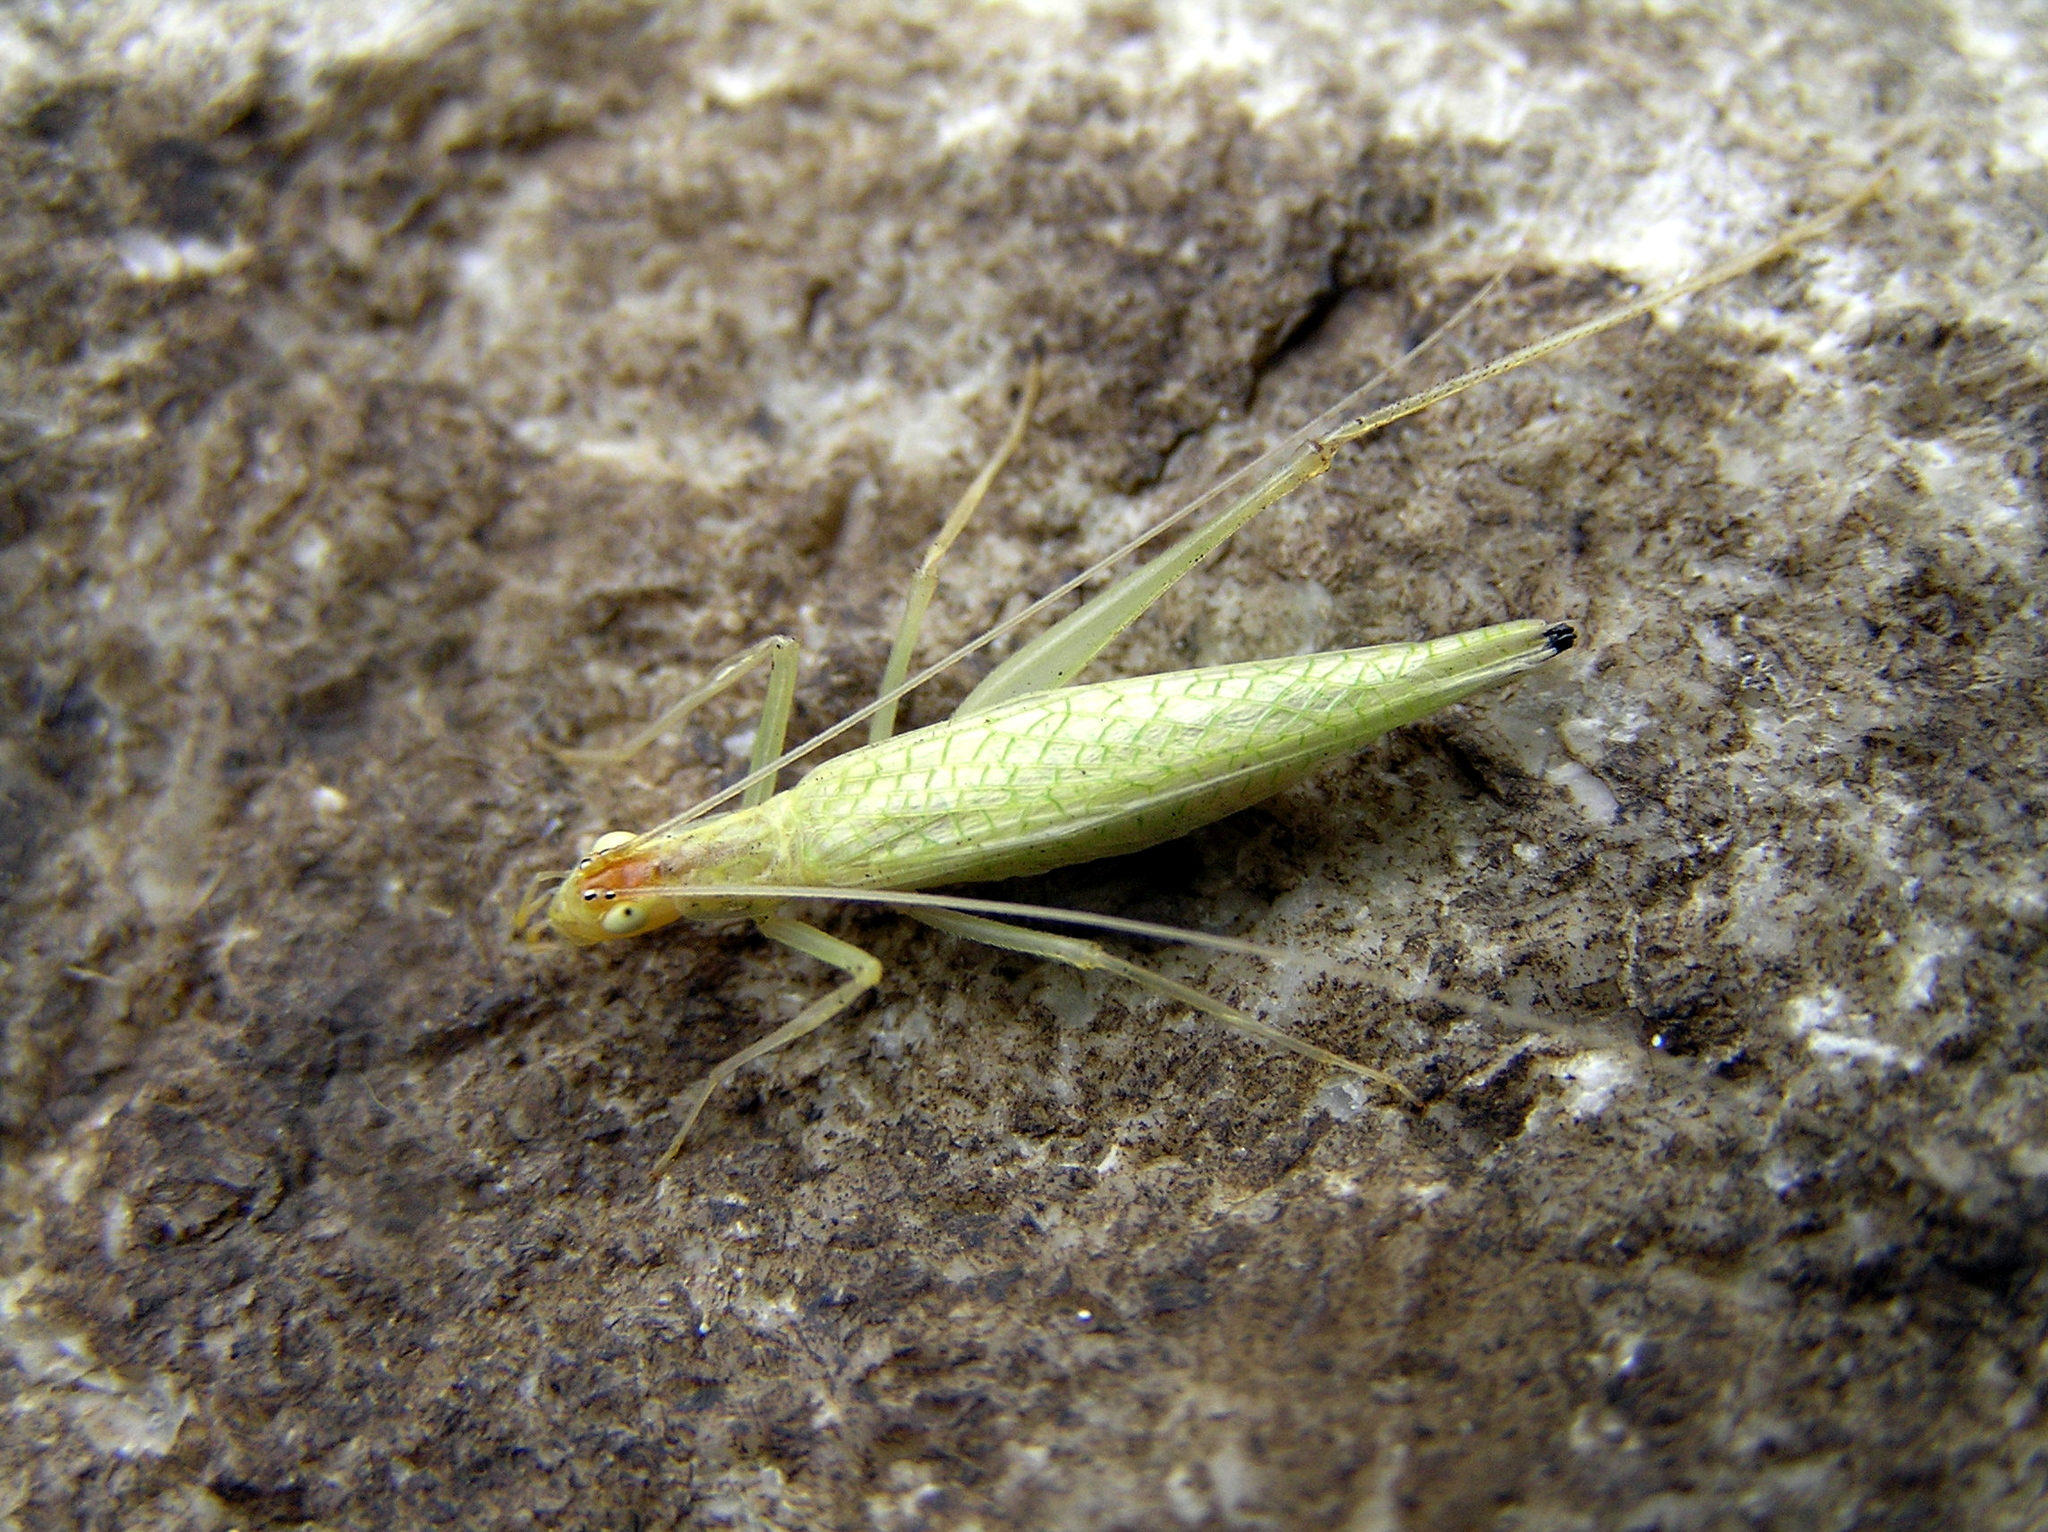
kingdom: Animalia
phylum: Arthropoda
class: Insecta
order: Orthoptera
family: Gryllidae
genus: Oecanthus
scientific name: Oecanthus niveus
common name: Narrow-winged tree cricket
